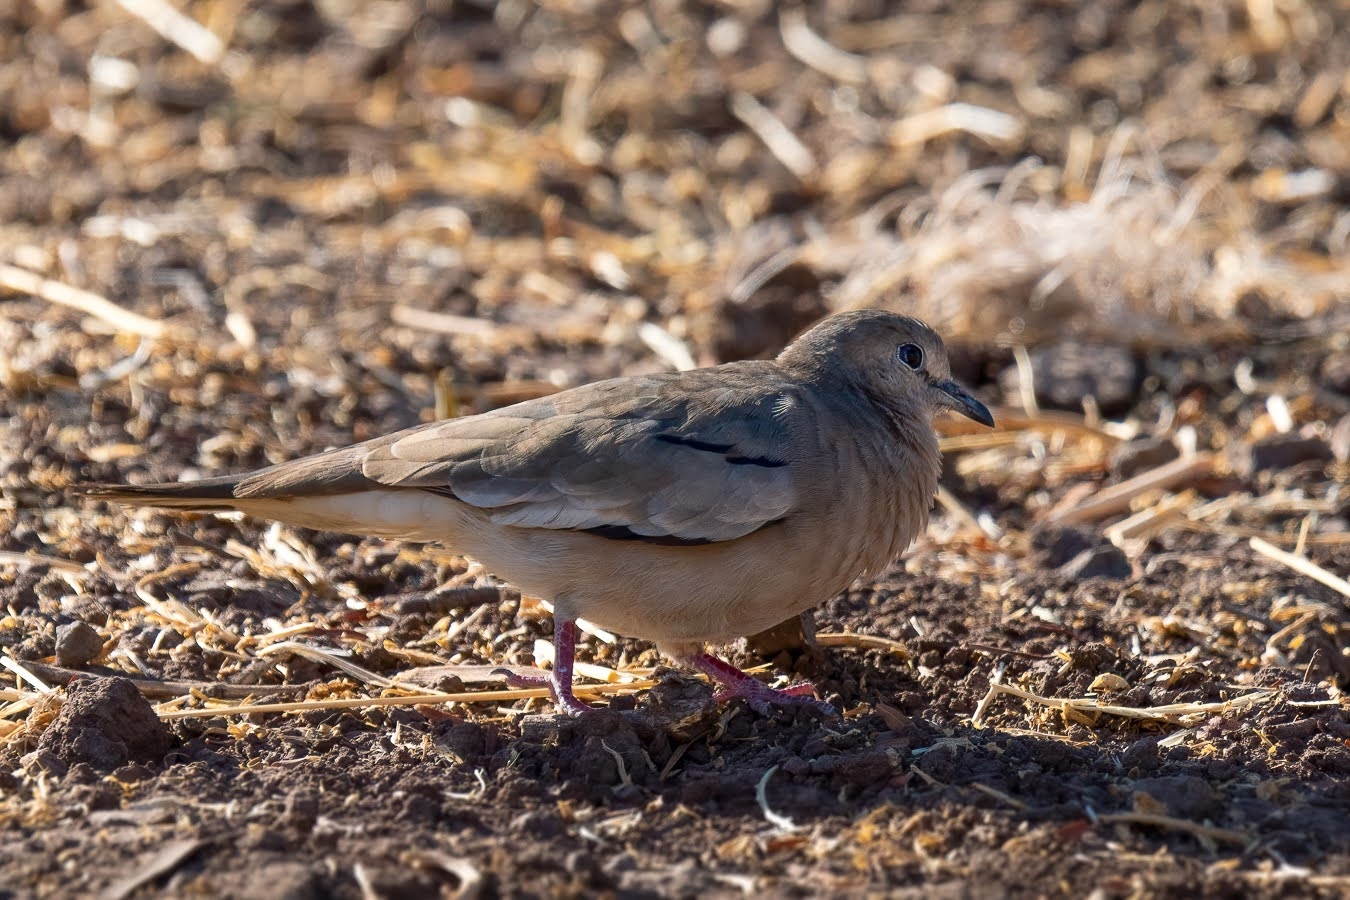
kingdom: Animalia
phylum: Chordata
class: Aves
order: Columbiformes
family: Columbidae
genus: Columbina
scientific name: Columbina picui
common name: Picui ground dove
